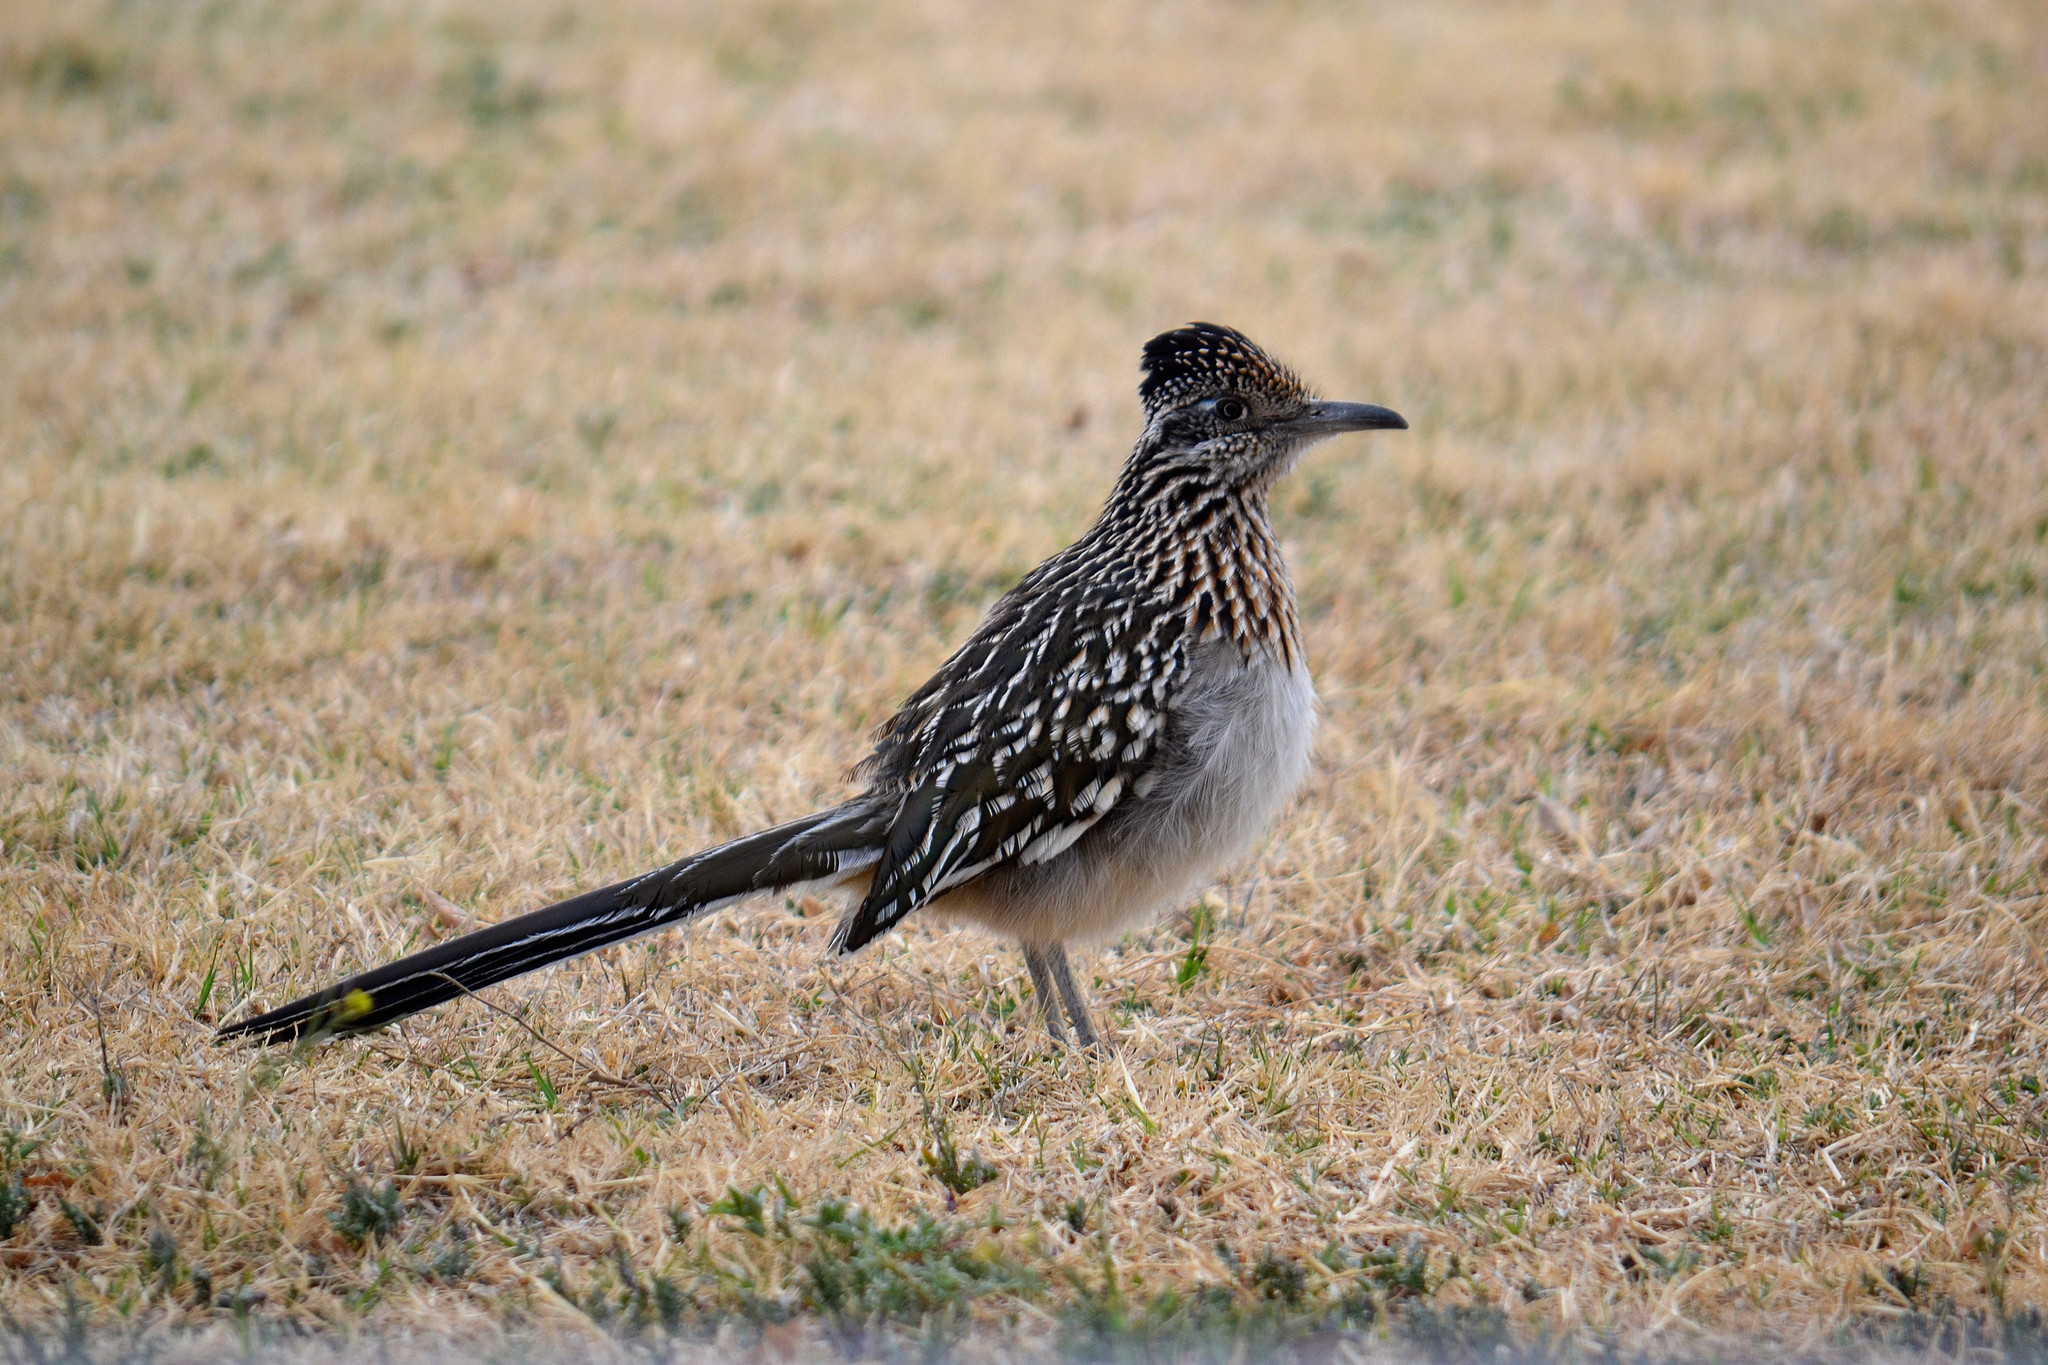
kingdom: Animalia
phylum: Chordata
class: Aves
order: Cuculiformes
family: Cuculidae
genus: Geococcyx
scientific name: Geococcyx californianus
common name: Greater roadrunner
